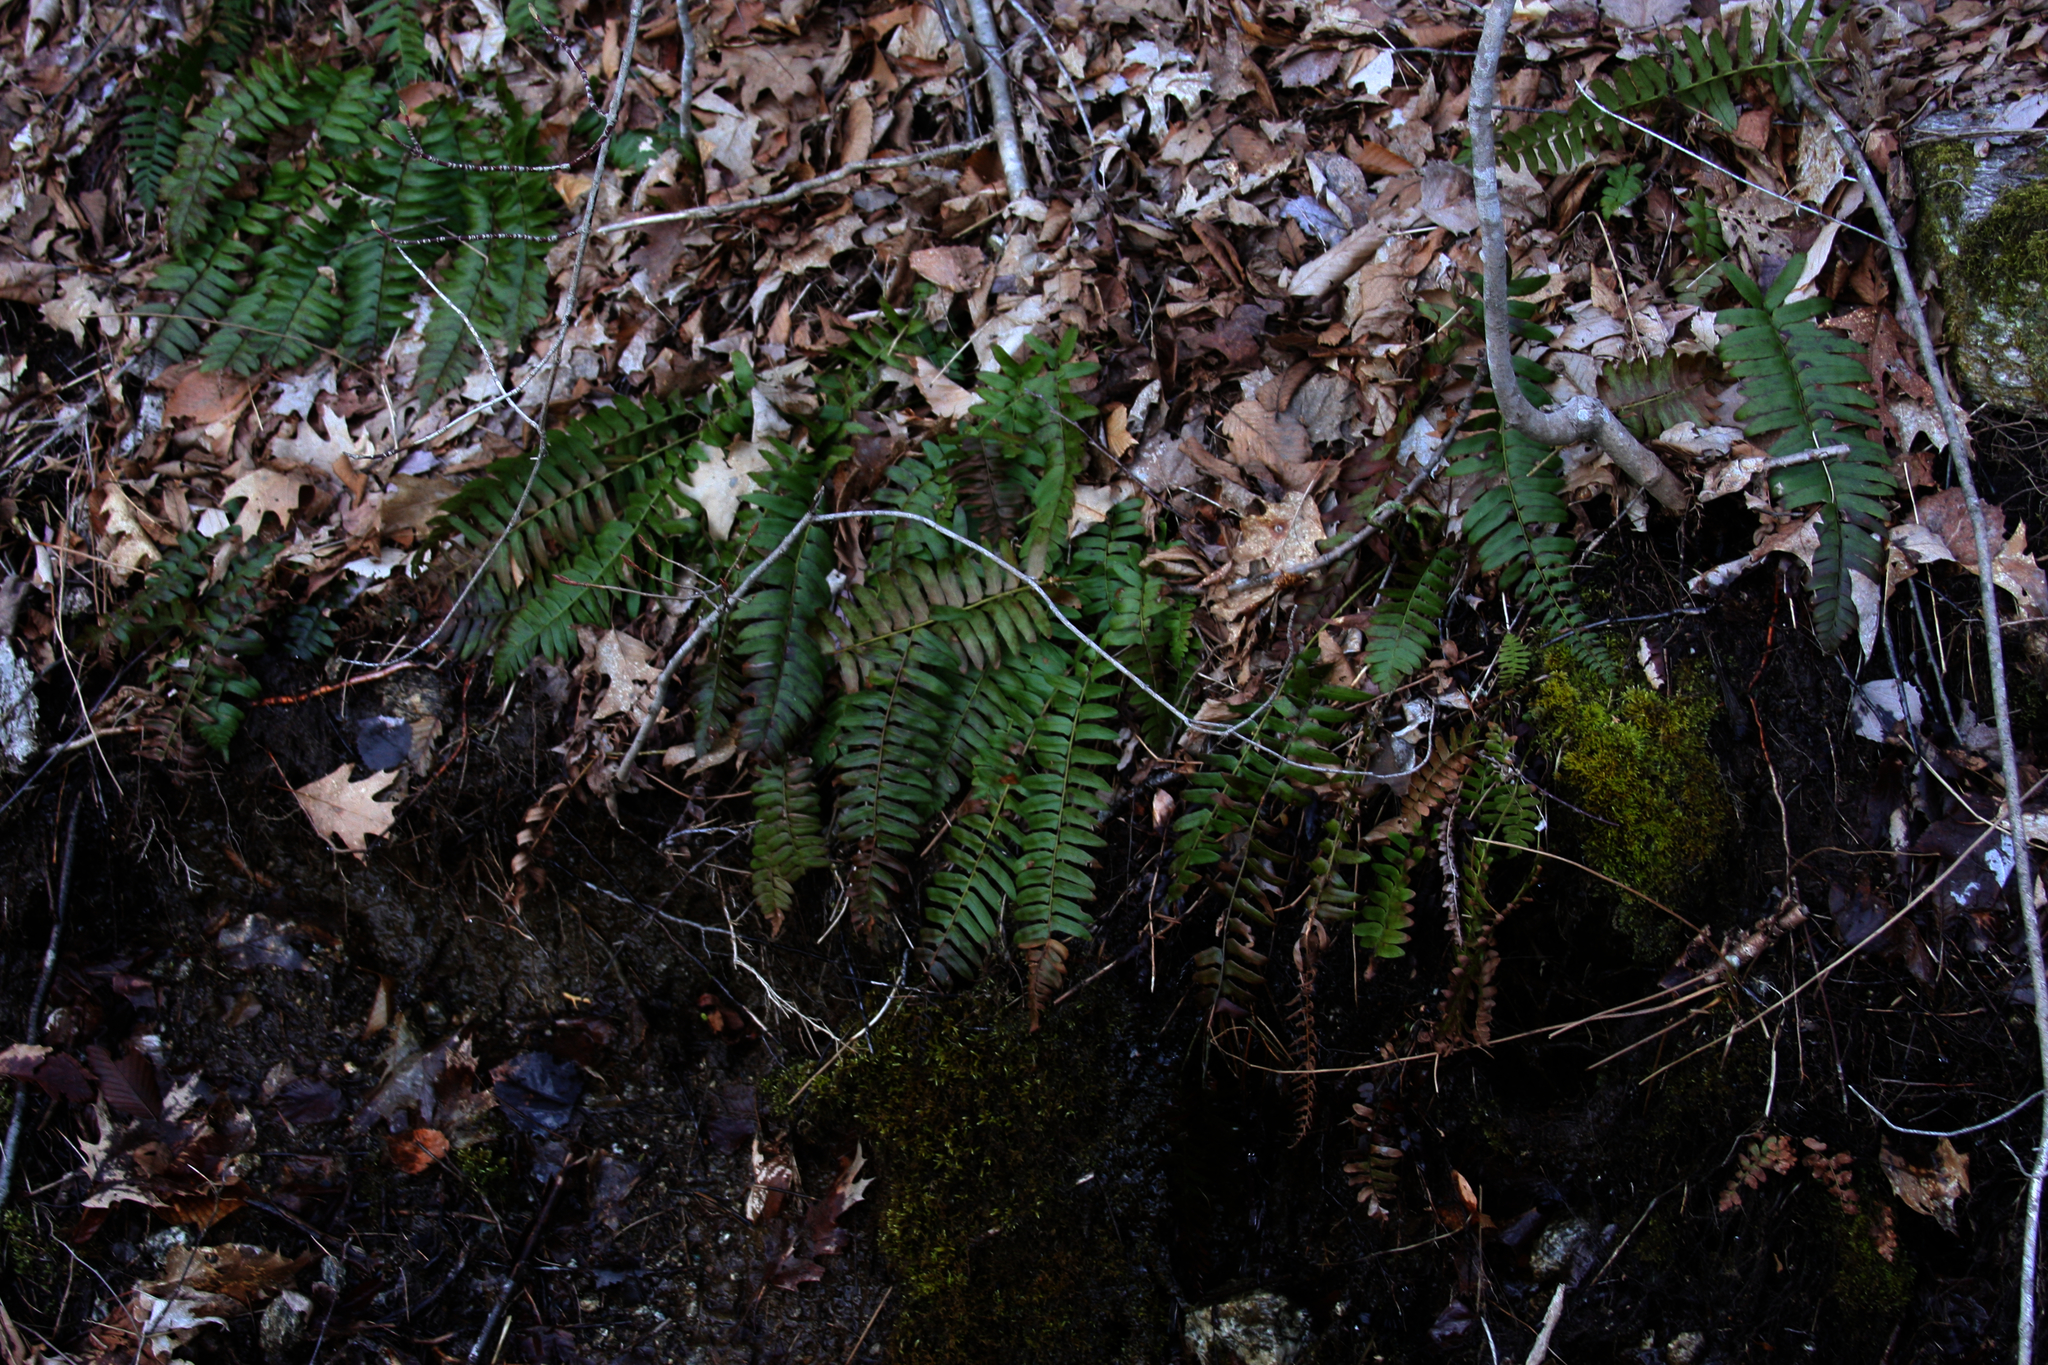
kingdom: Plantae
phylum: Tracheophyta
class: Polypodiopsida
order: Polypodiales
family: Dryopteridaceae
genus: Polystichum
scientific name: Polystichum acrostichoides
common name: Christmas fern
